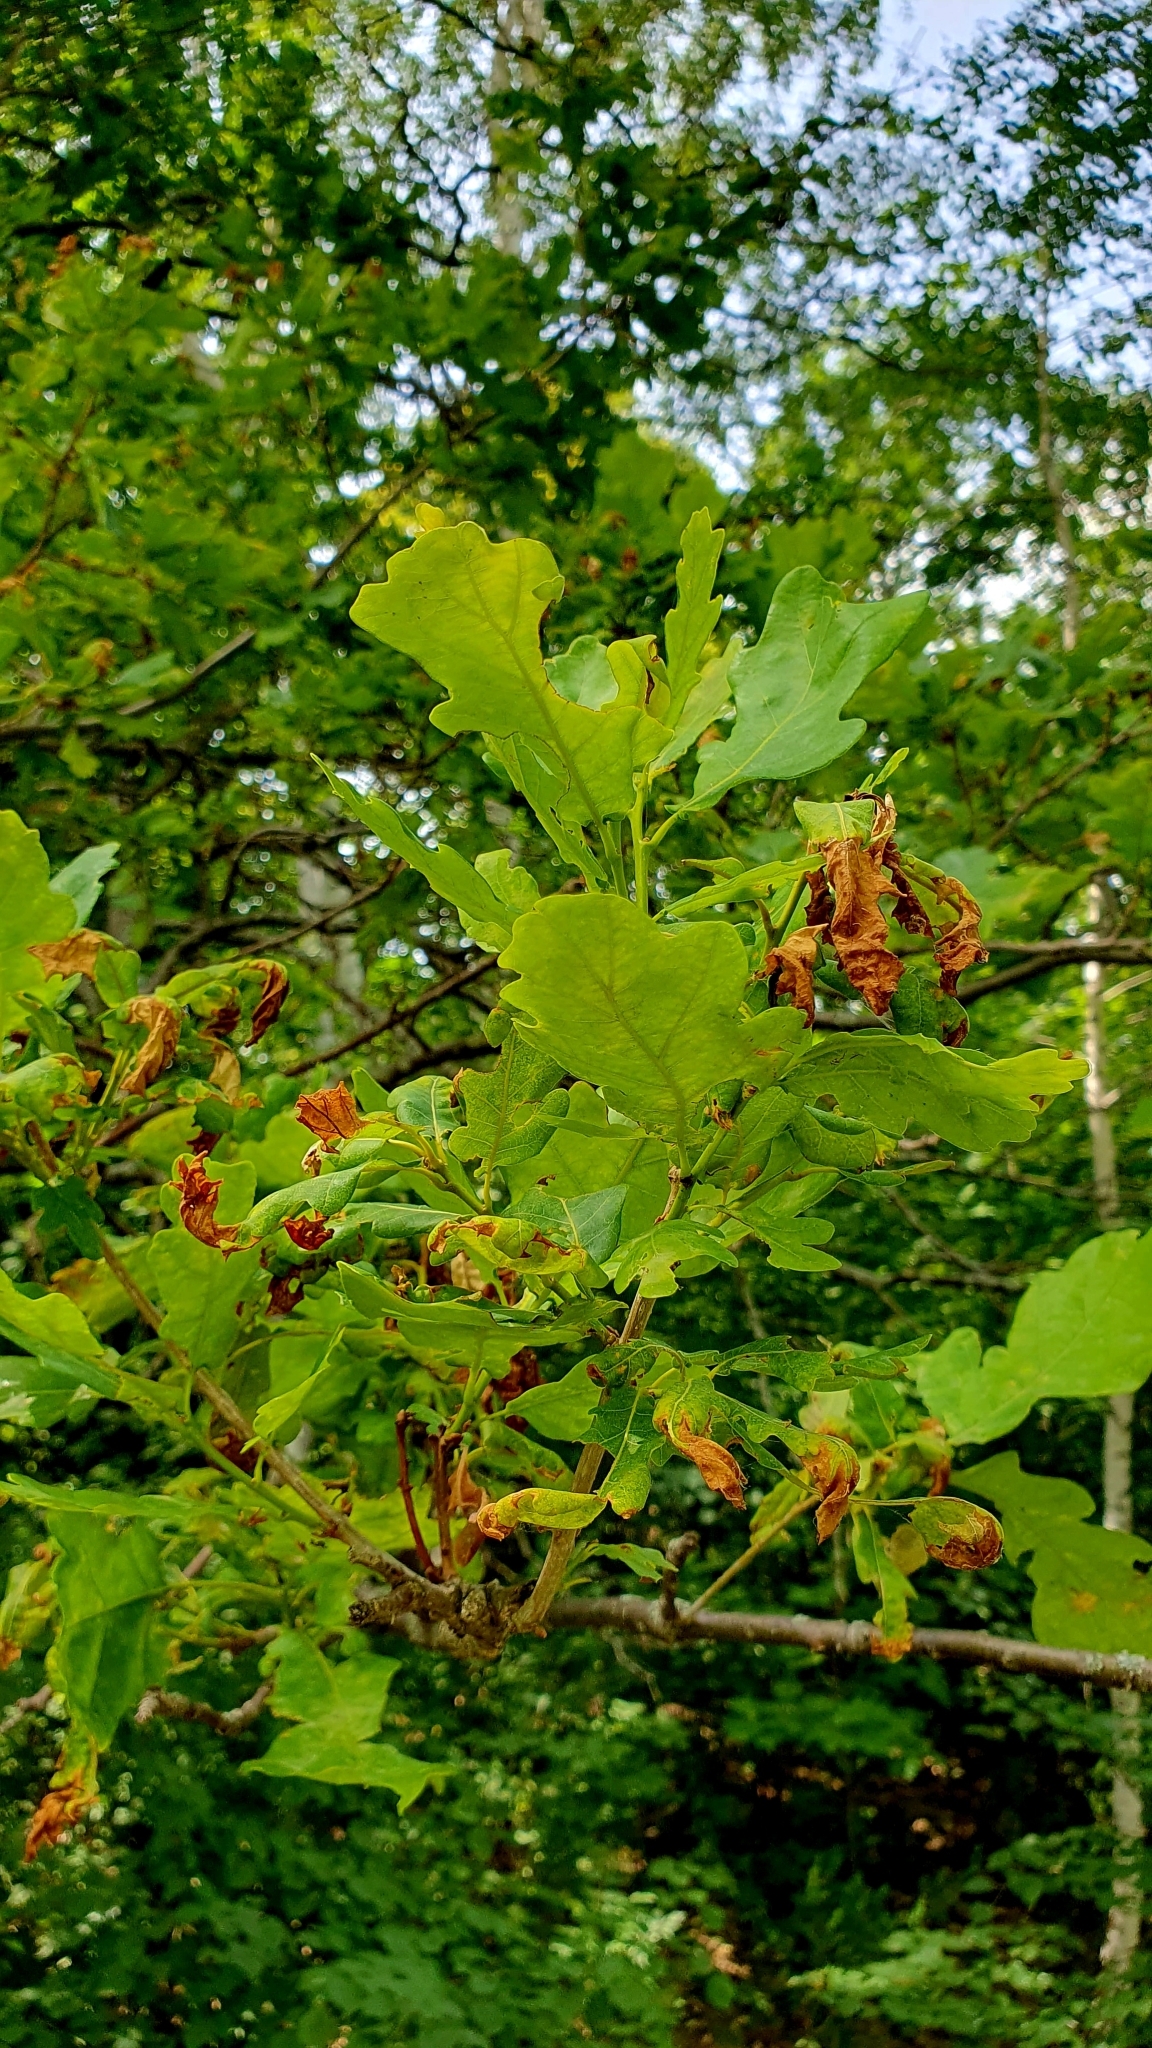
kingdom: Plantae
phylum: Tracheophyta
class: Magnoliopsida
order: Fagales
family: Fagaceae
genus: Quercus
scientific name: Quercus robur
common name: Pedunculate oak
